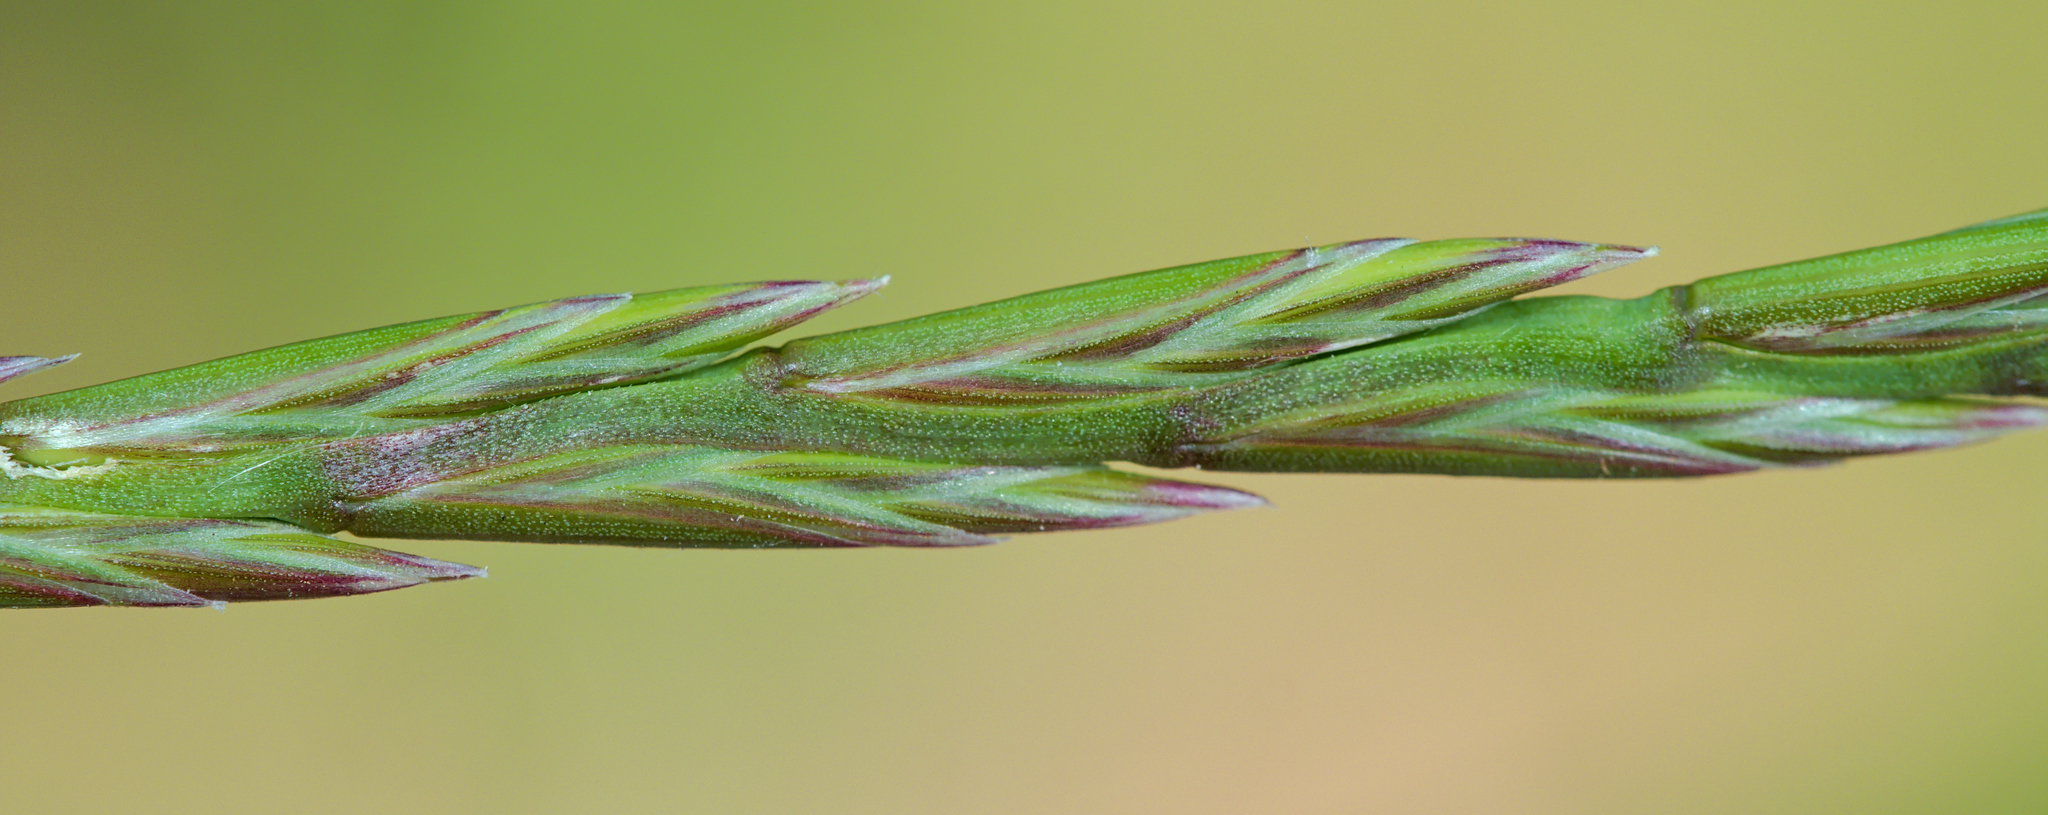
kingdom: Plantae
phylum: Tracheophyta
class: Liliopsida
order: Poales
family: Poaceae
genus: Lolium
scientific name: Lolium perenne
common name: Perennial ryegrass
